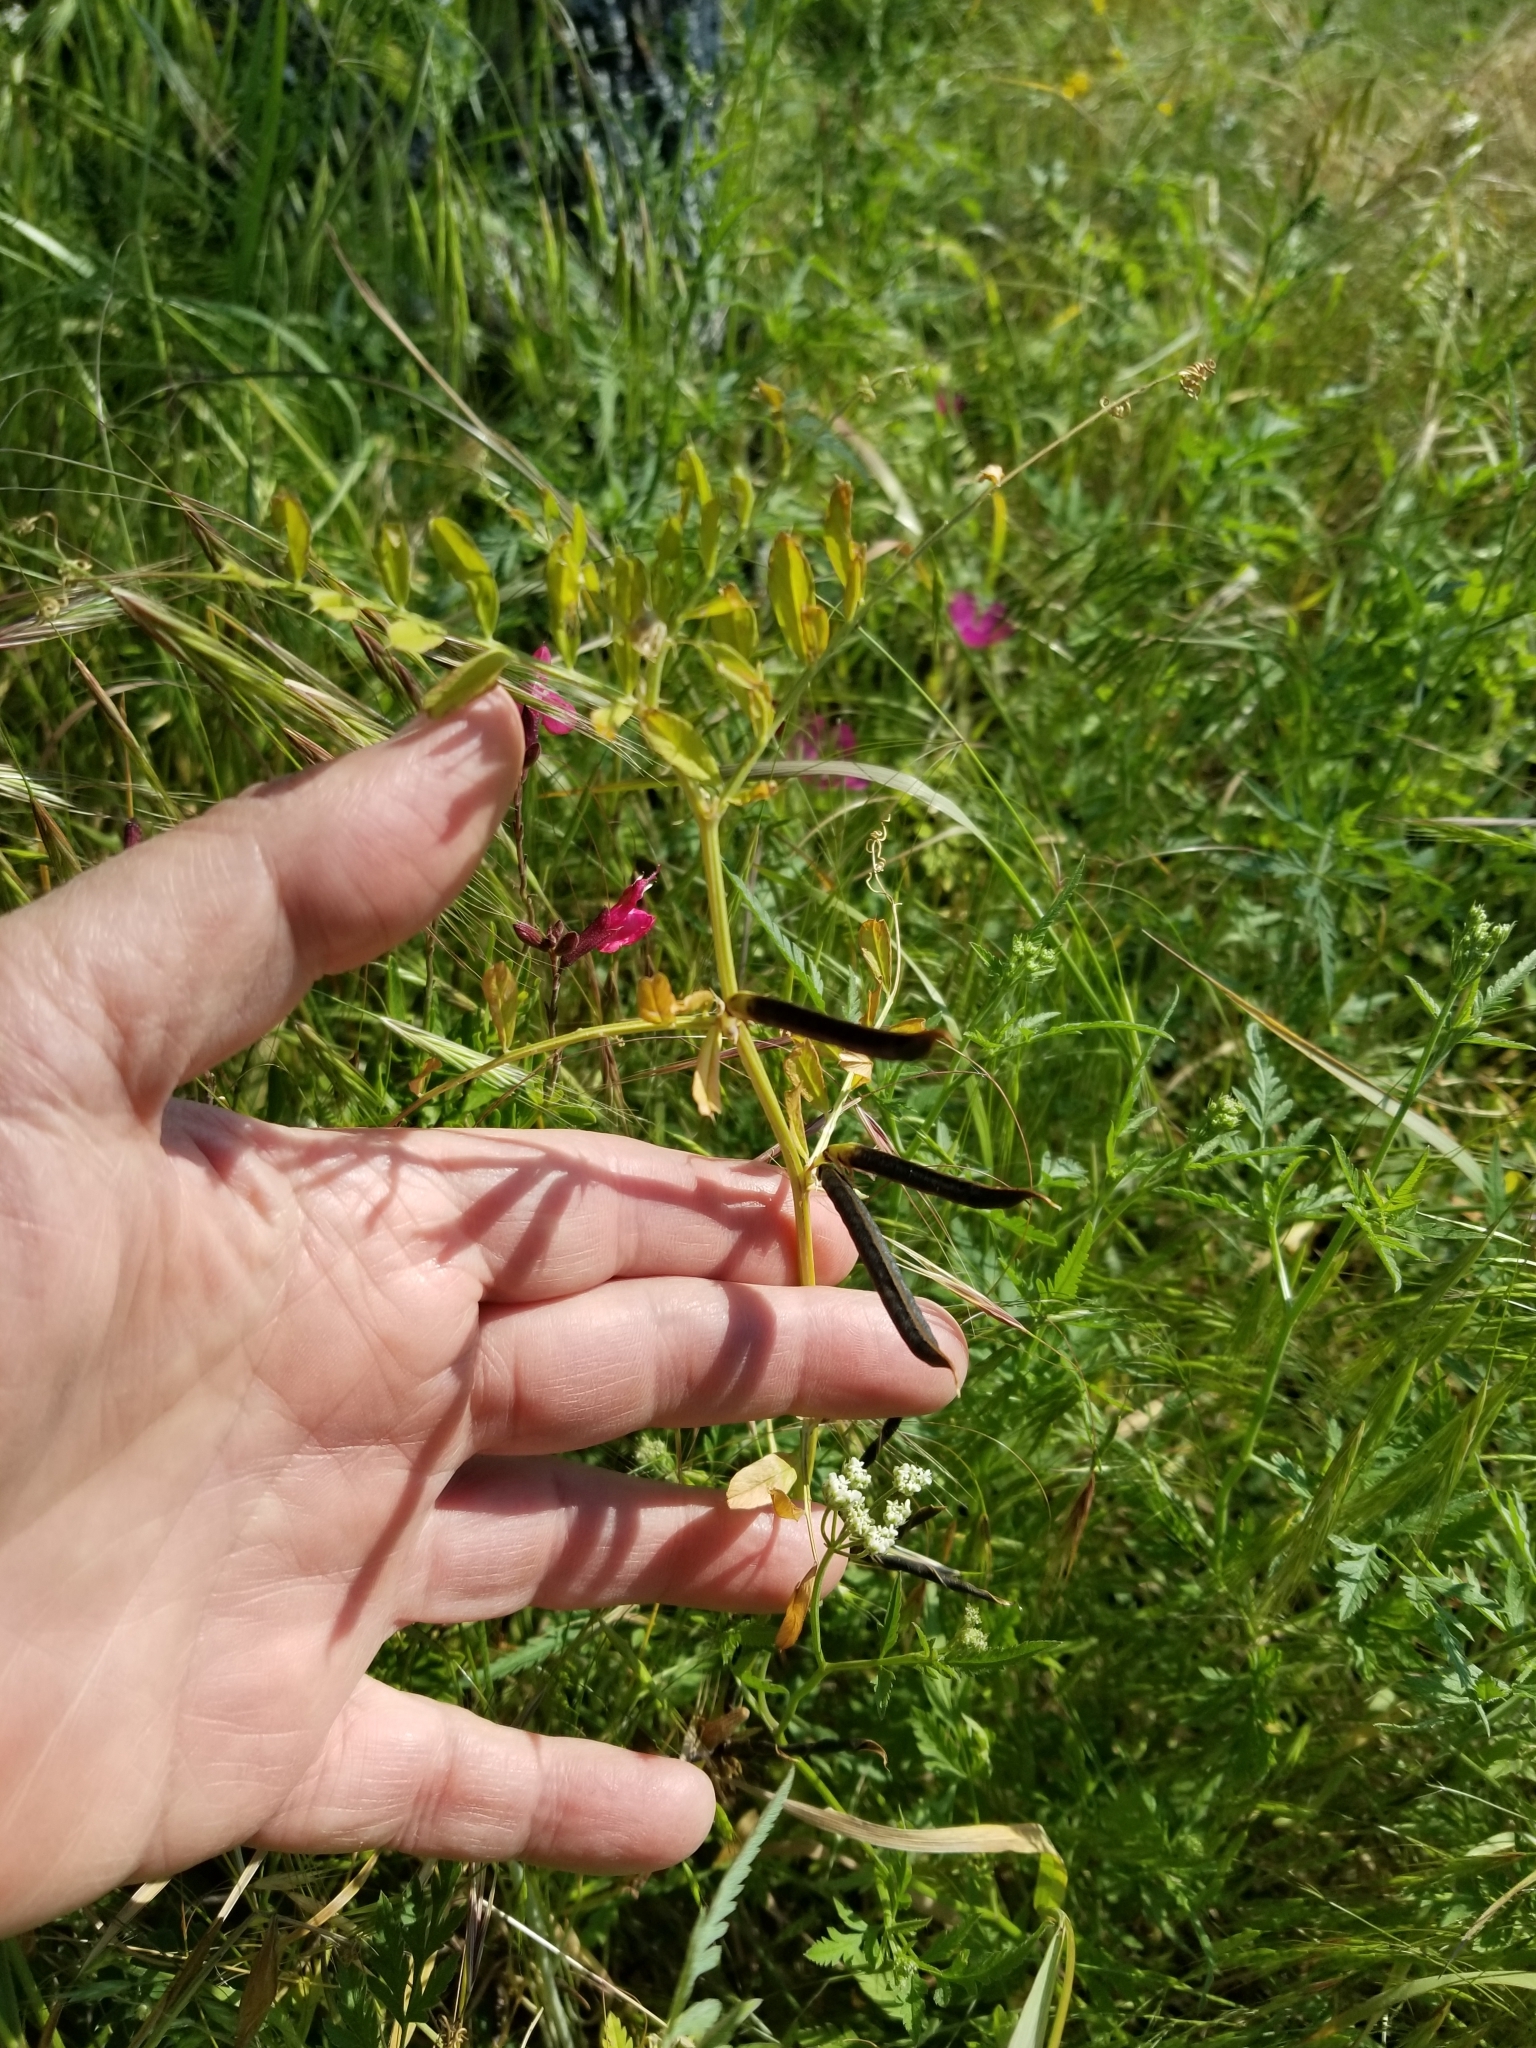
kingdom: Plantae
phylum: Tracheophyta
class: Magnoliopsida
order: Fabales
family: Fabaceae
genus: Vicia
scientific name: Vicia sativa
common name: Garden vetch
